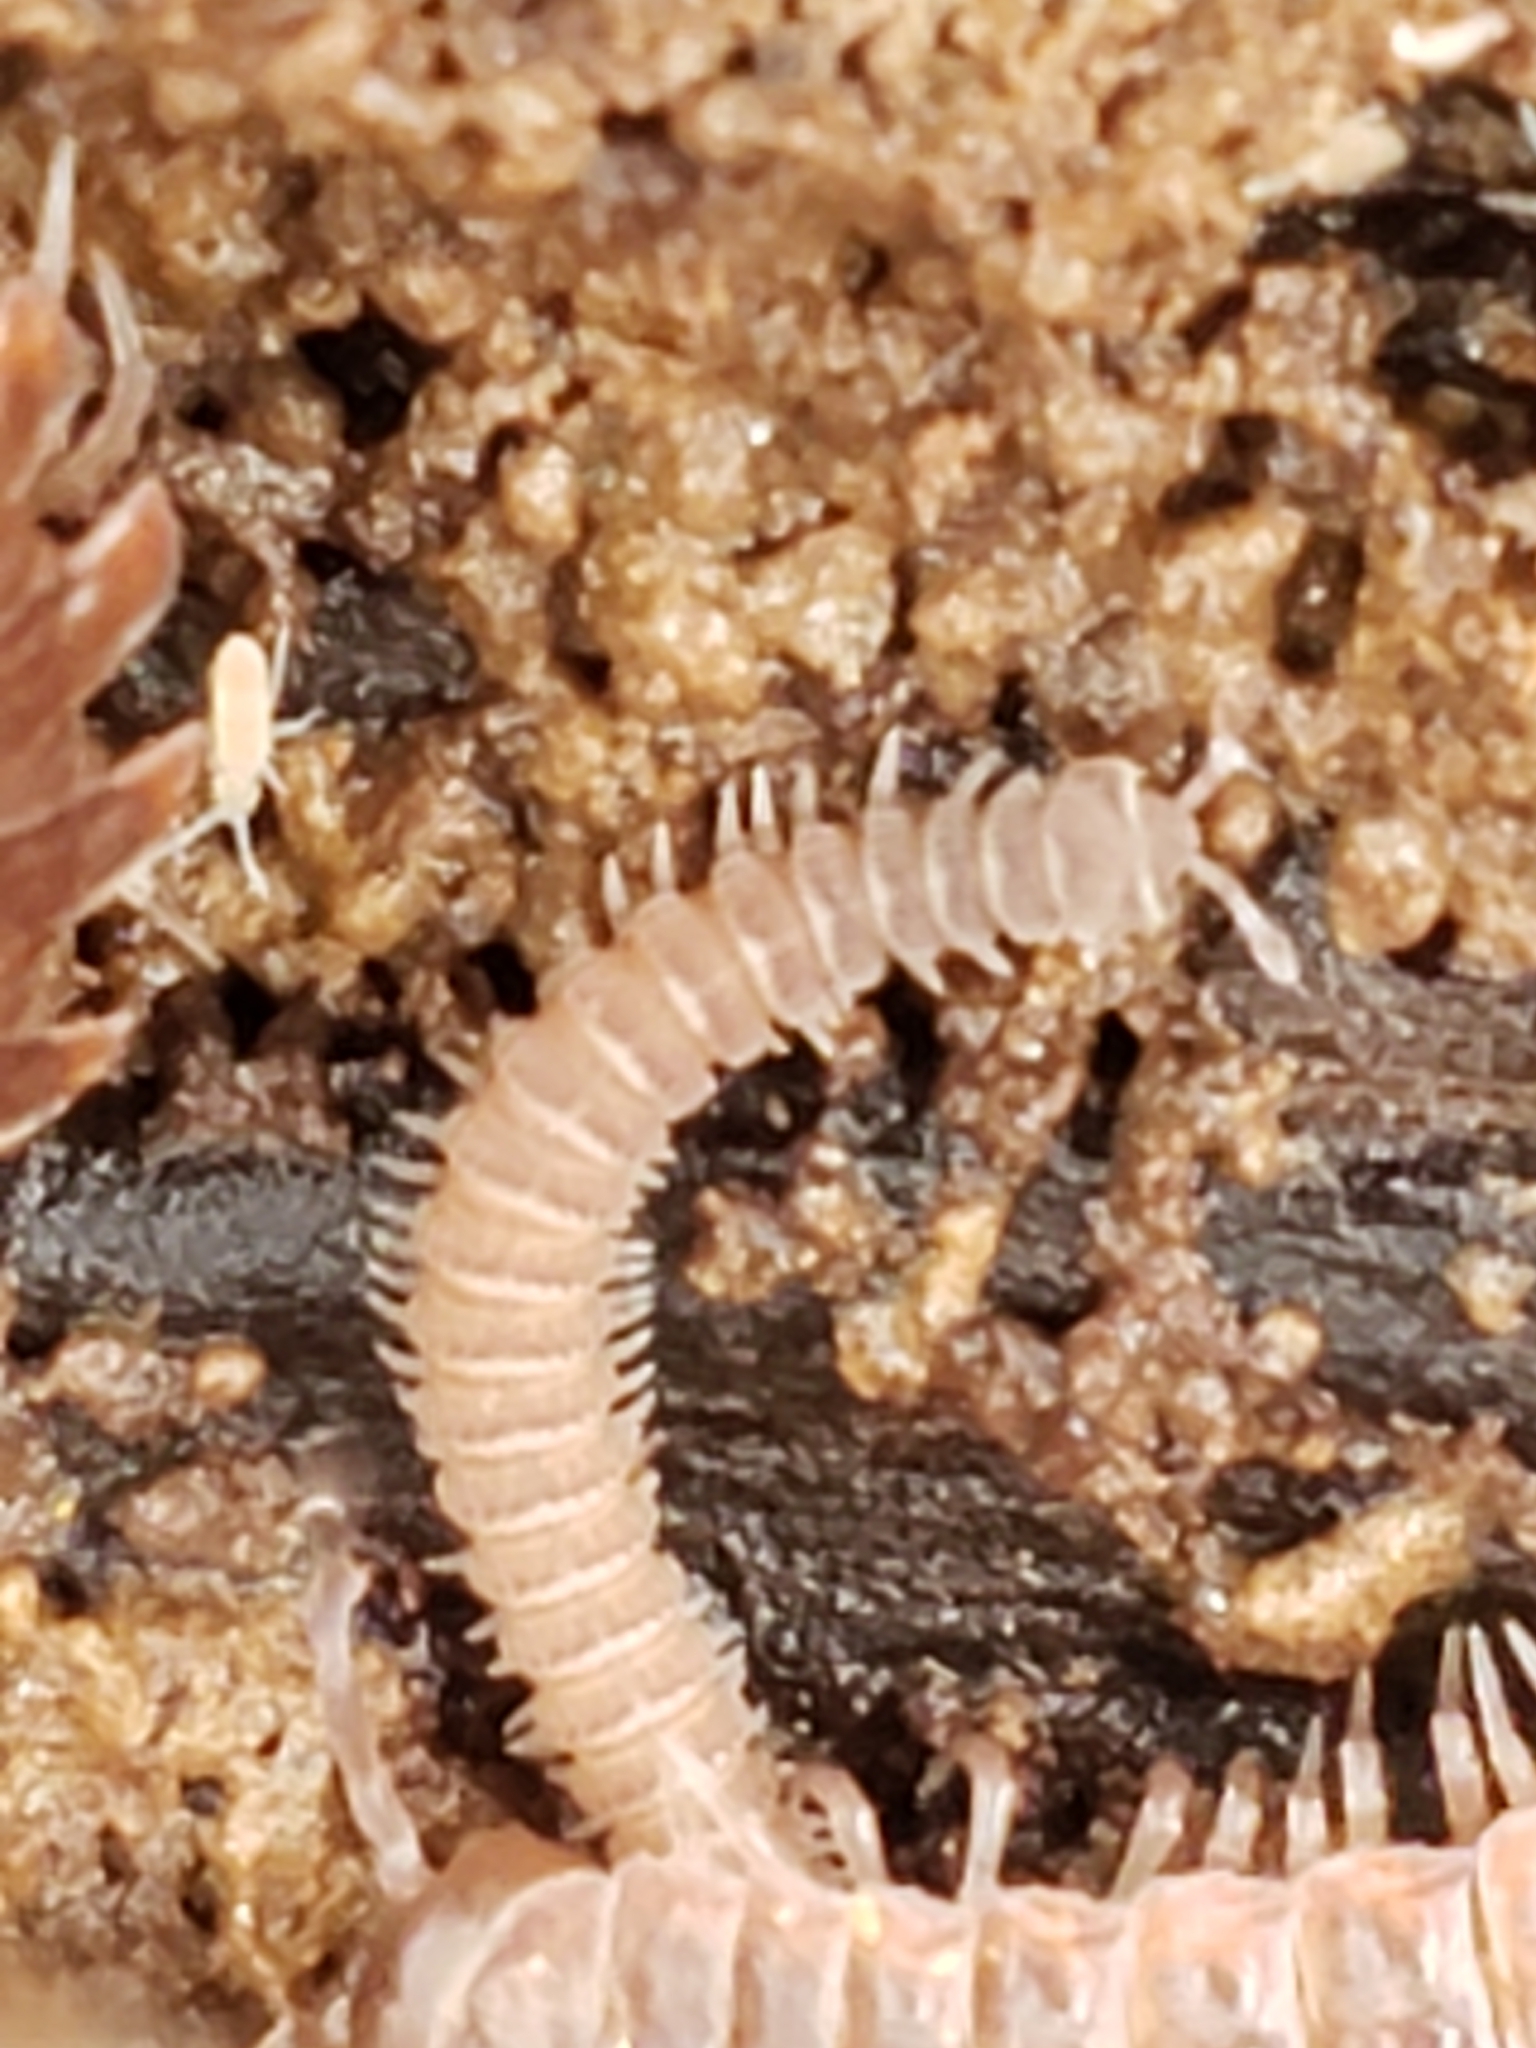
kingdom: Animalia
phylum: Arthropoda
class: Diplopoda
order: Chordeumatida
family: Striariidae
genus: Striaria
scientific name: Striaria columbiana
